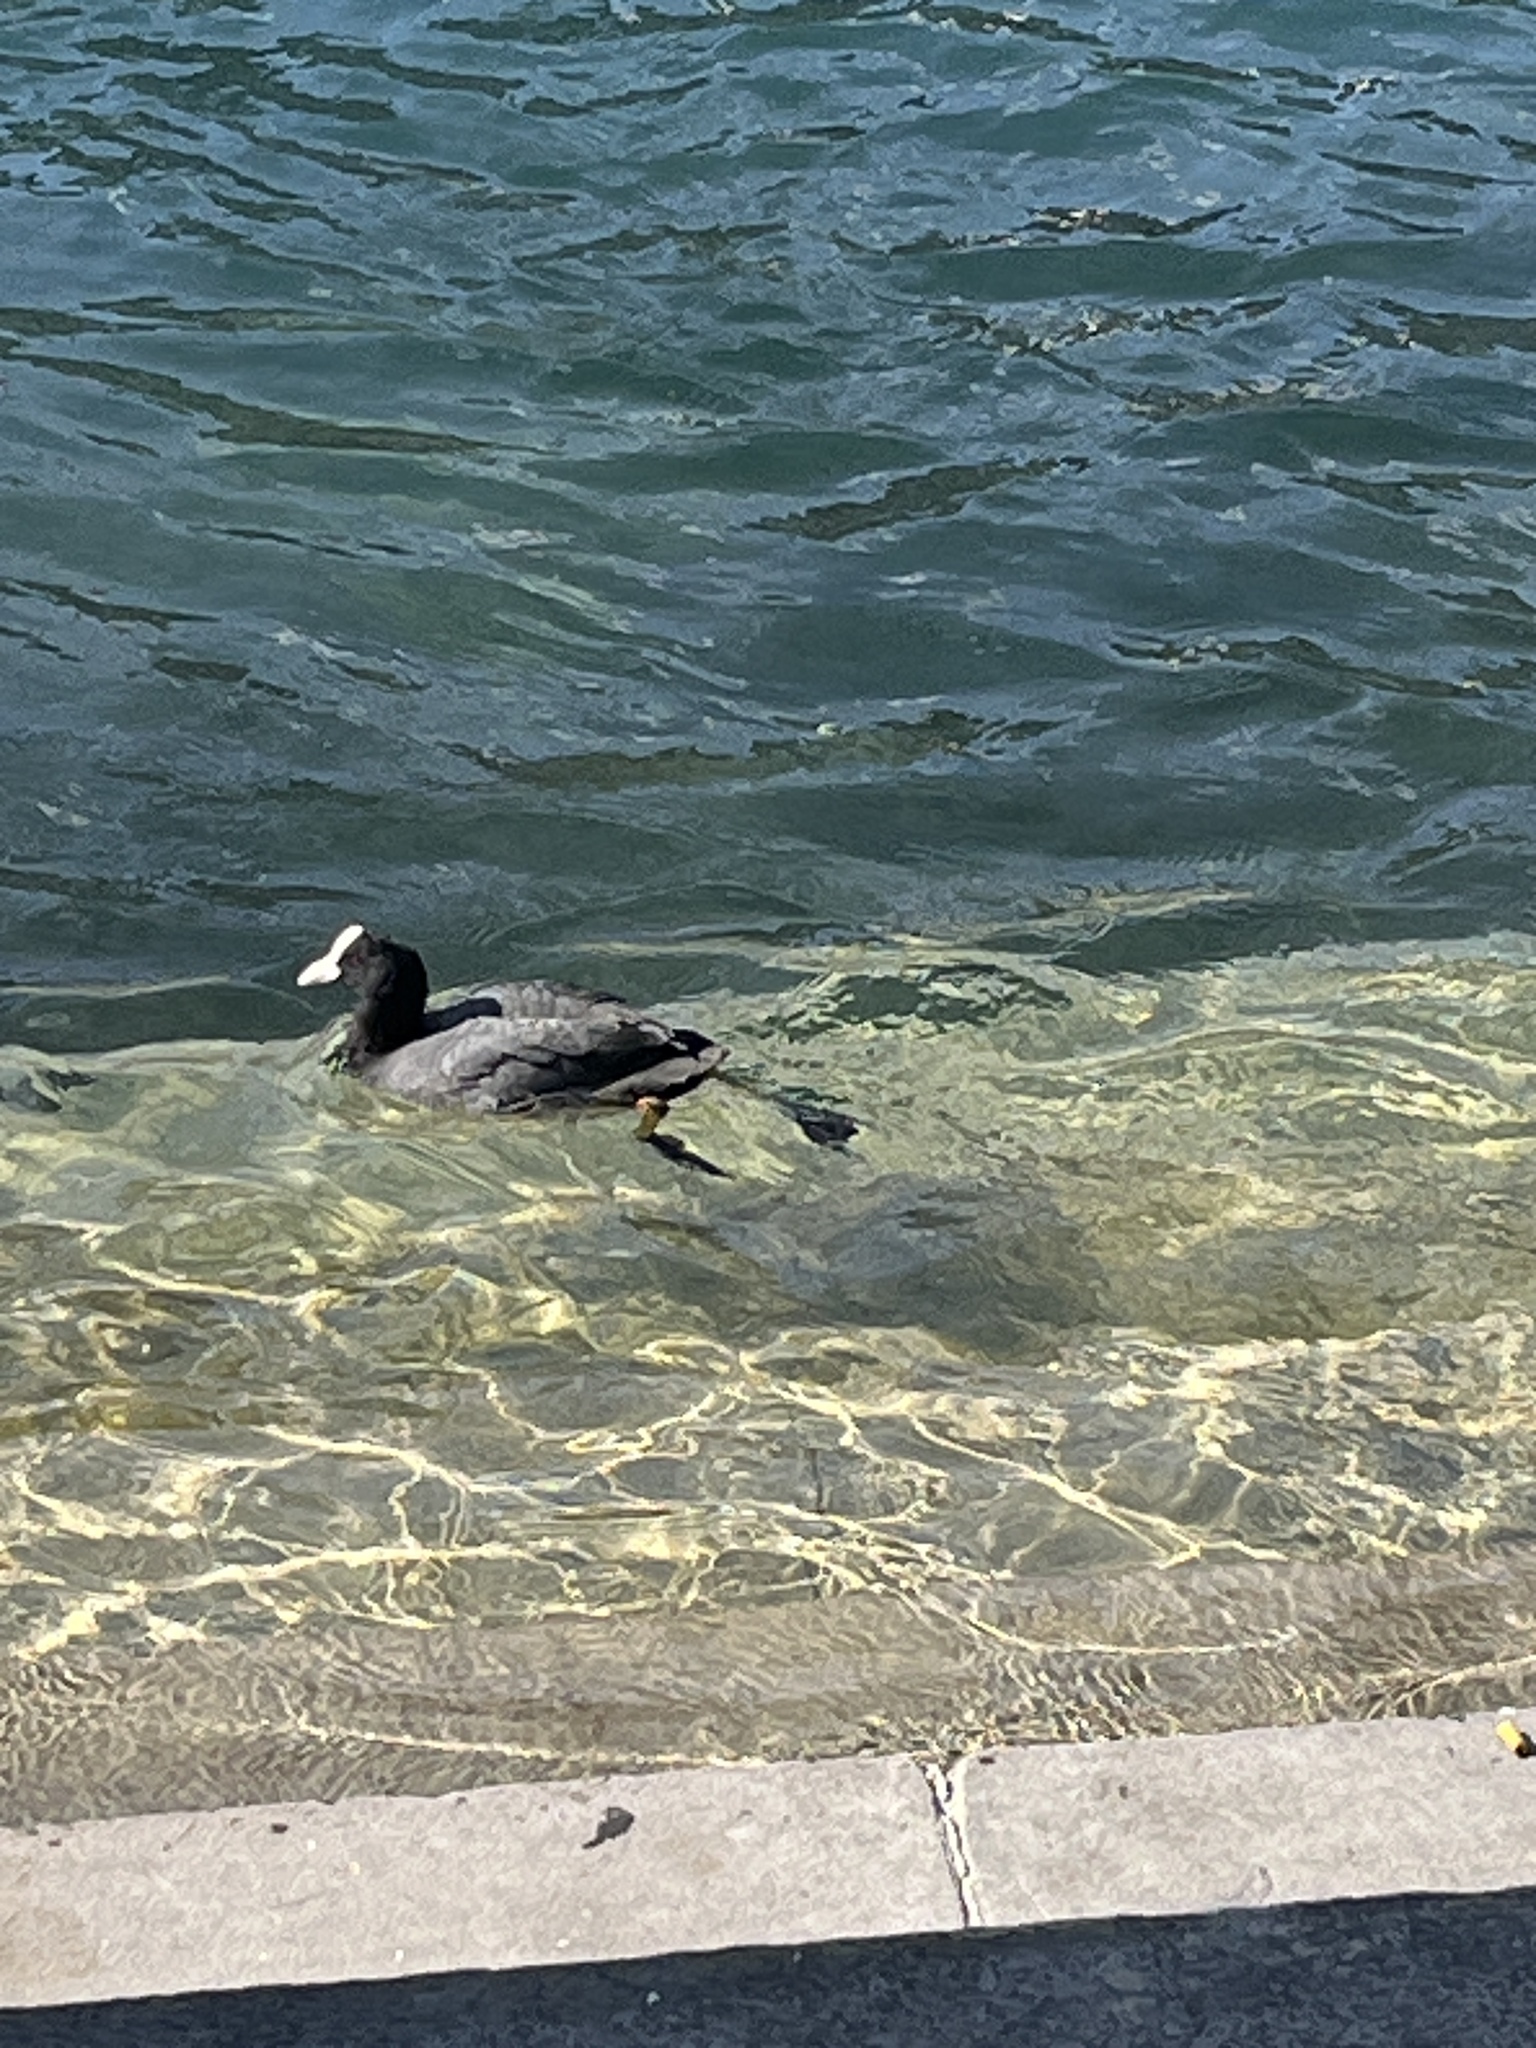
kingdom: Animalia
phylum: Chordata
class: Aves
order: Gruiformes
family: Rallidae
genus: Fulica
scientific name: Fulica atra
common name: Eurasian coot
